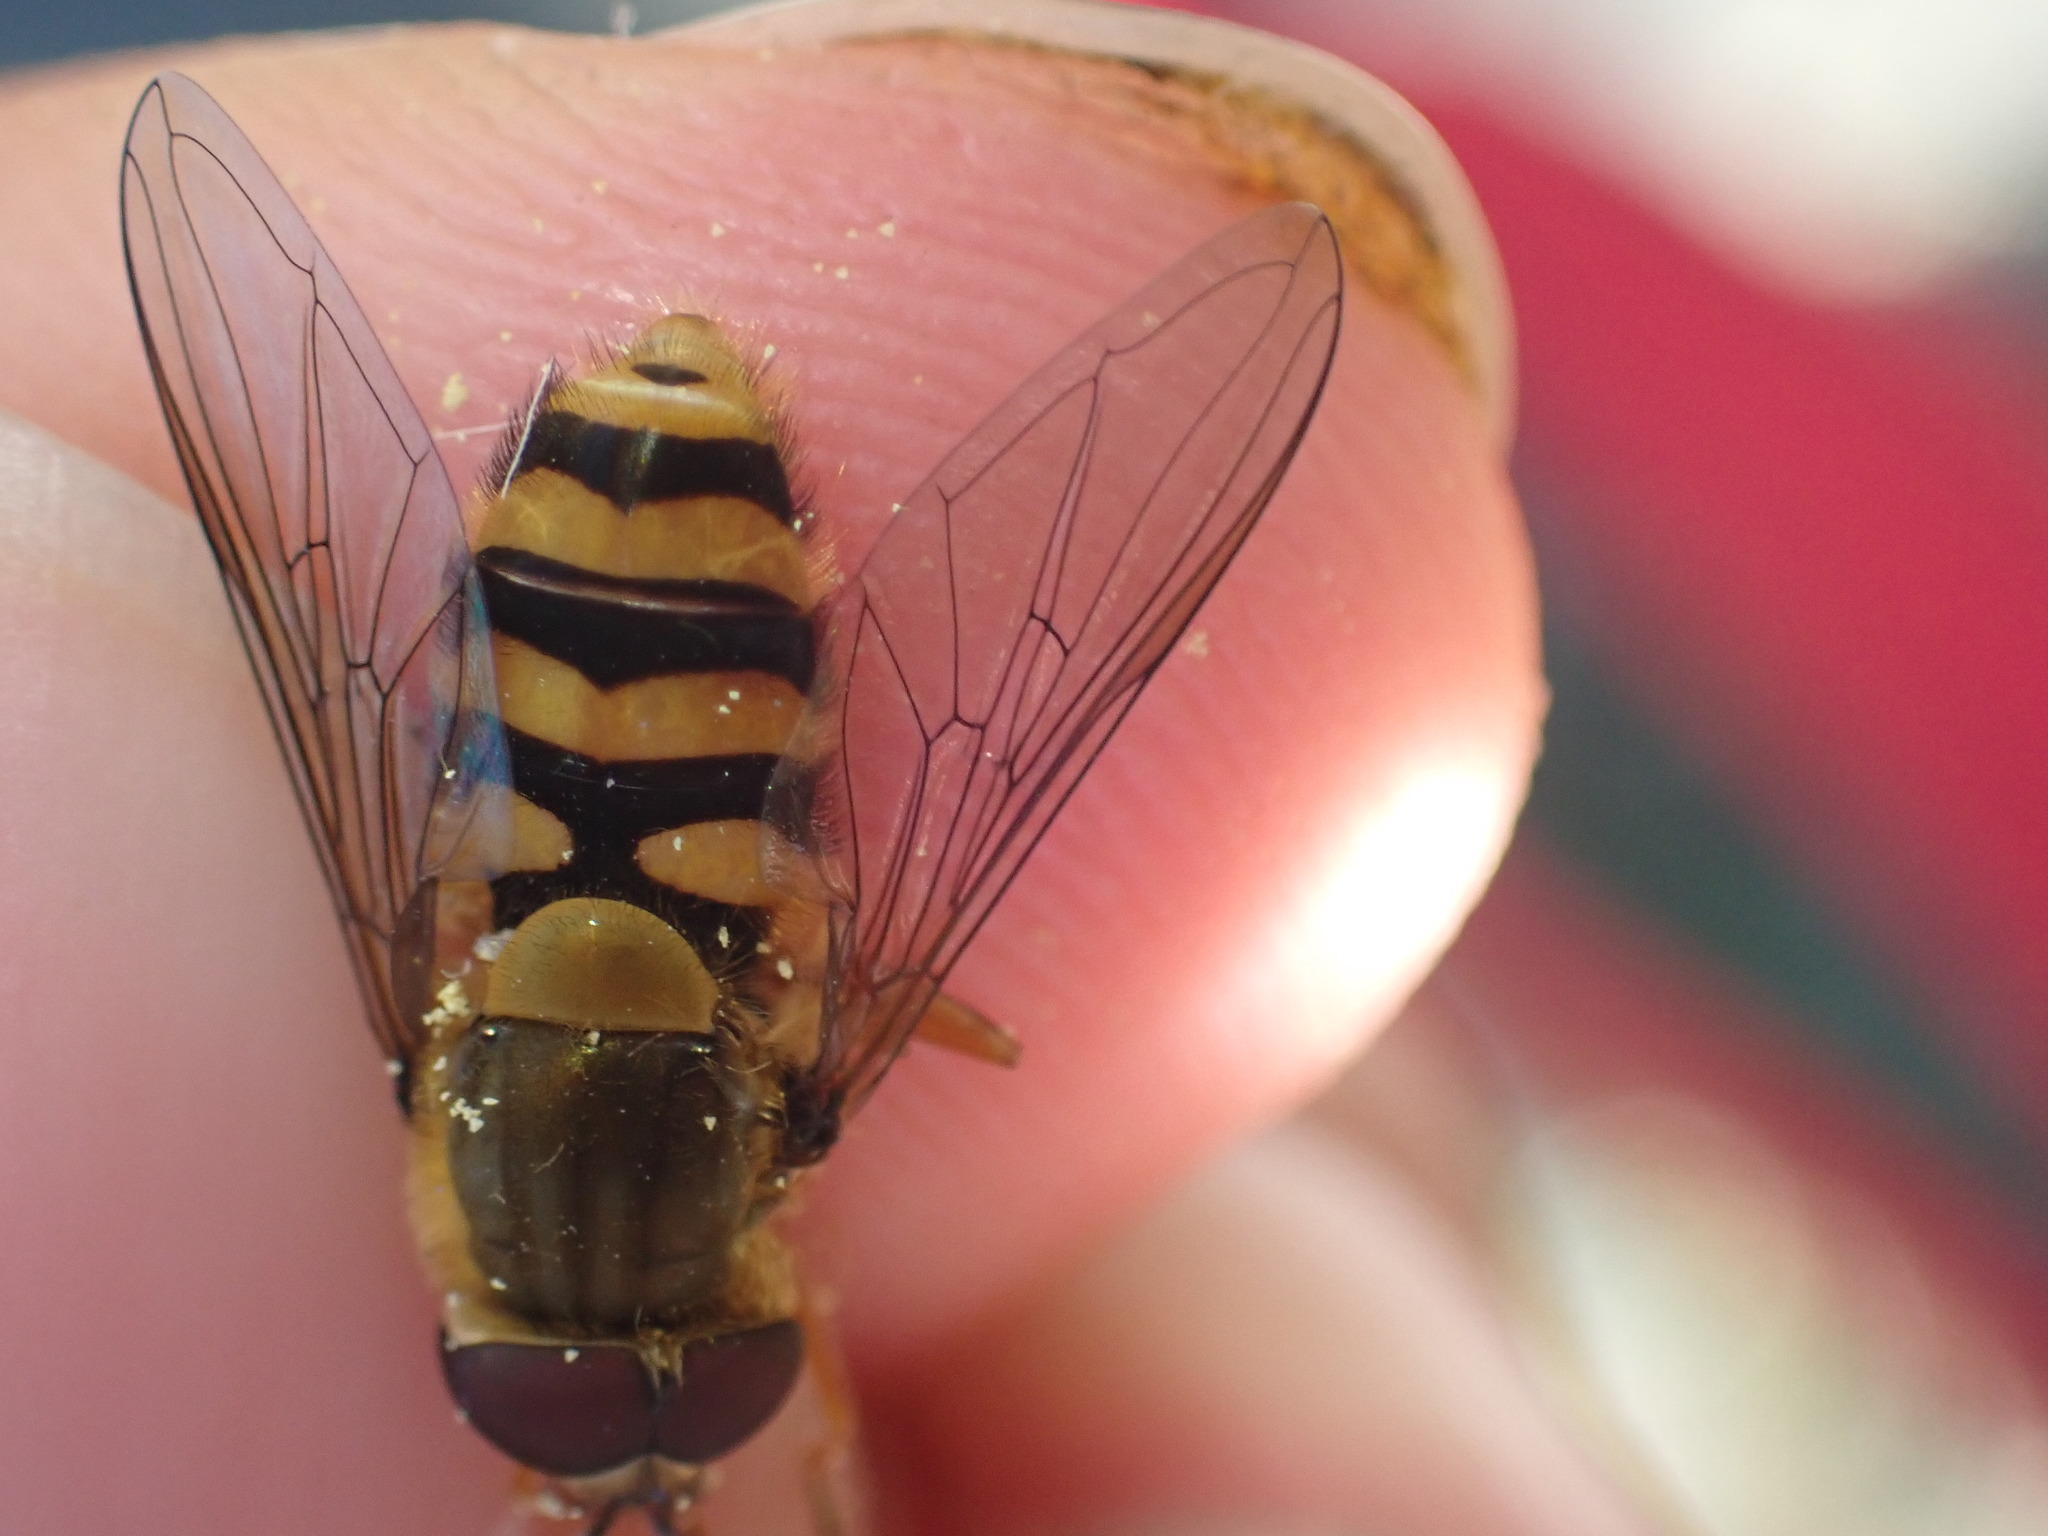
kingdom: Animalia
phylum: Arthropoda
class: Insecta
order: Diptera
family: Syrphidae
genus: Syrphus
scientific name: Syrphus
